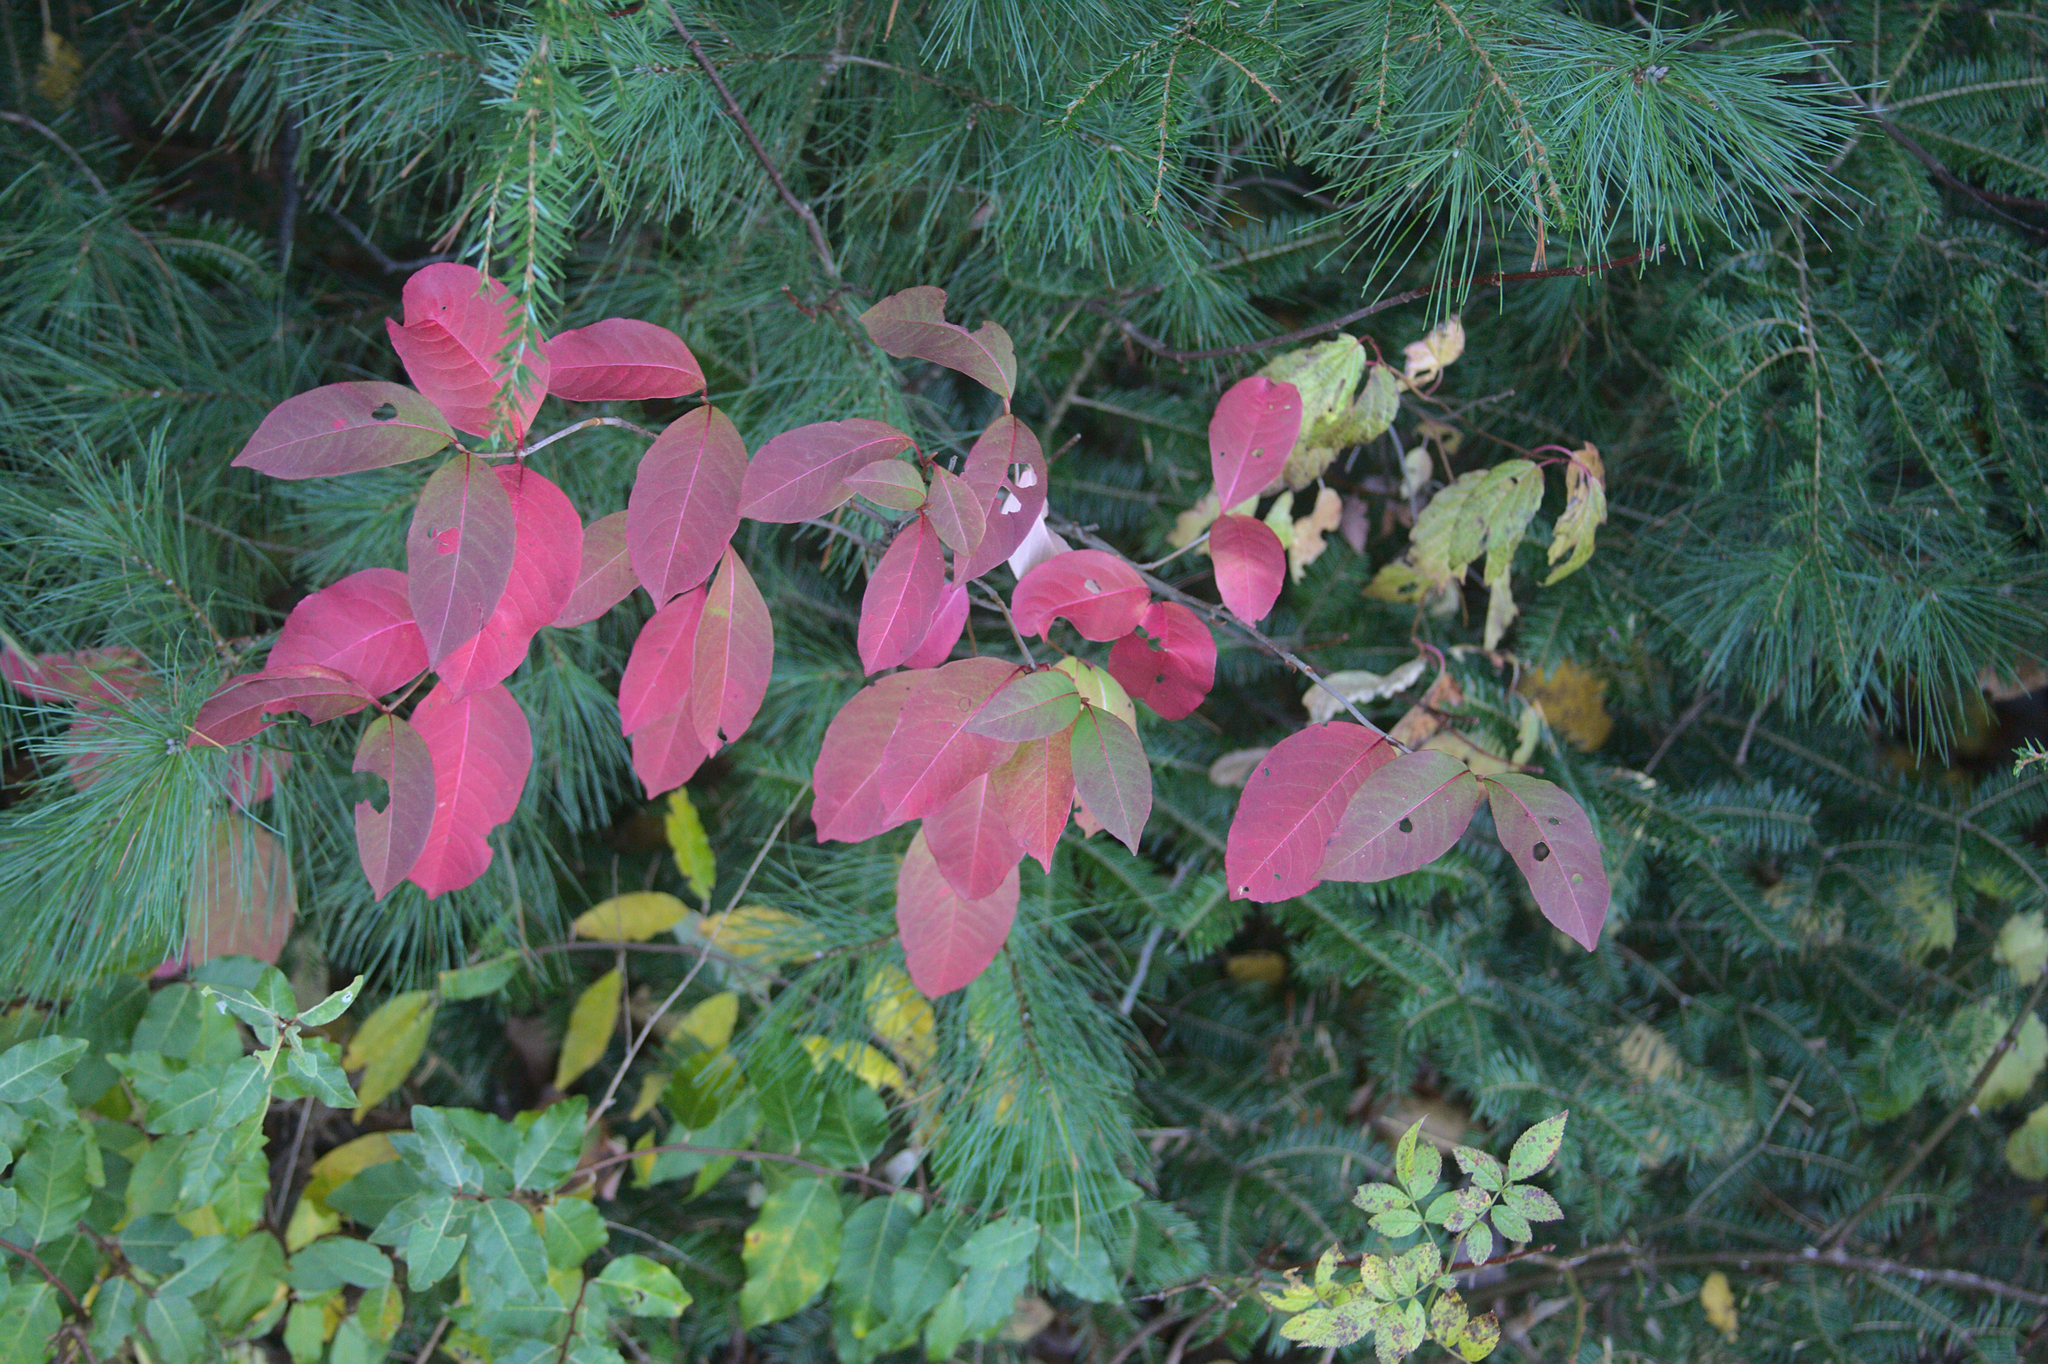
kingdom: Plantae
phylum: Tracheophyta
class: Magnoliopsida
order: Dipsacales
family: Viburnaceae
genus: Viburnum
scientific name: Viburnum cassinoides
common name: Swamp haw
